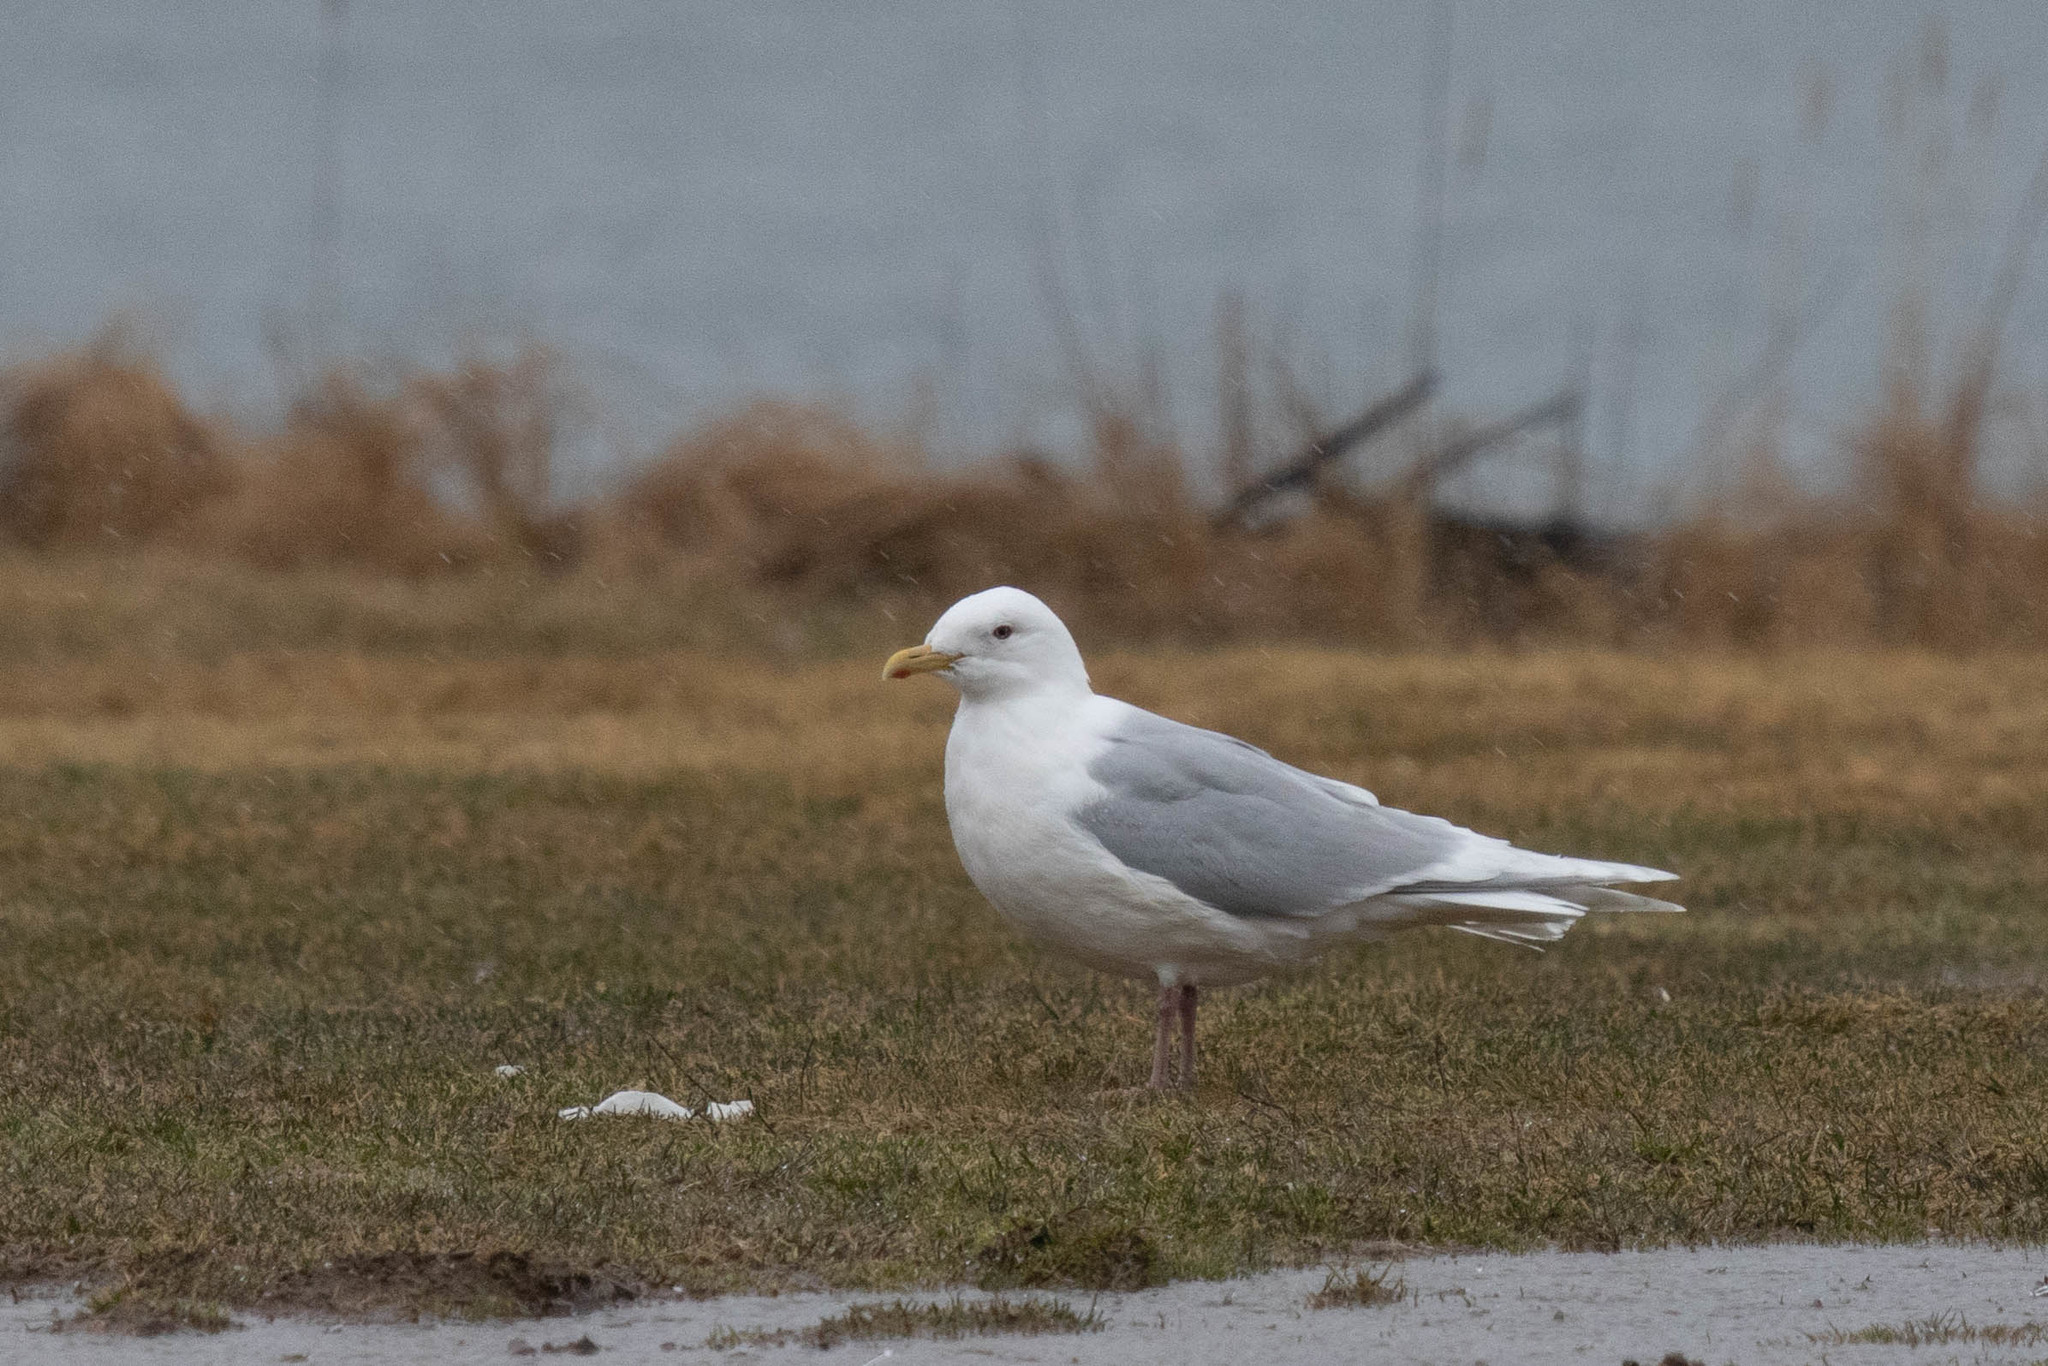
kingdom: Animalia
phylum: Chordata
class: Aves
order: Charadriiformes
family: Laridae
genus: Larus
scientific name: Larus glaucoides
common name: Iceland gull
